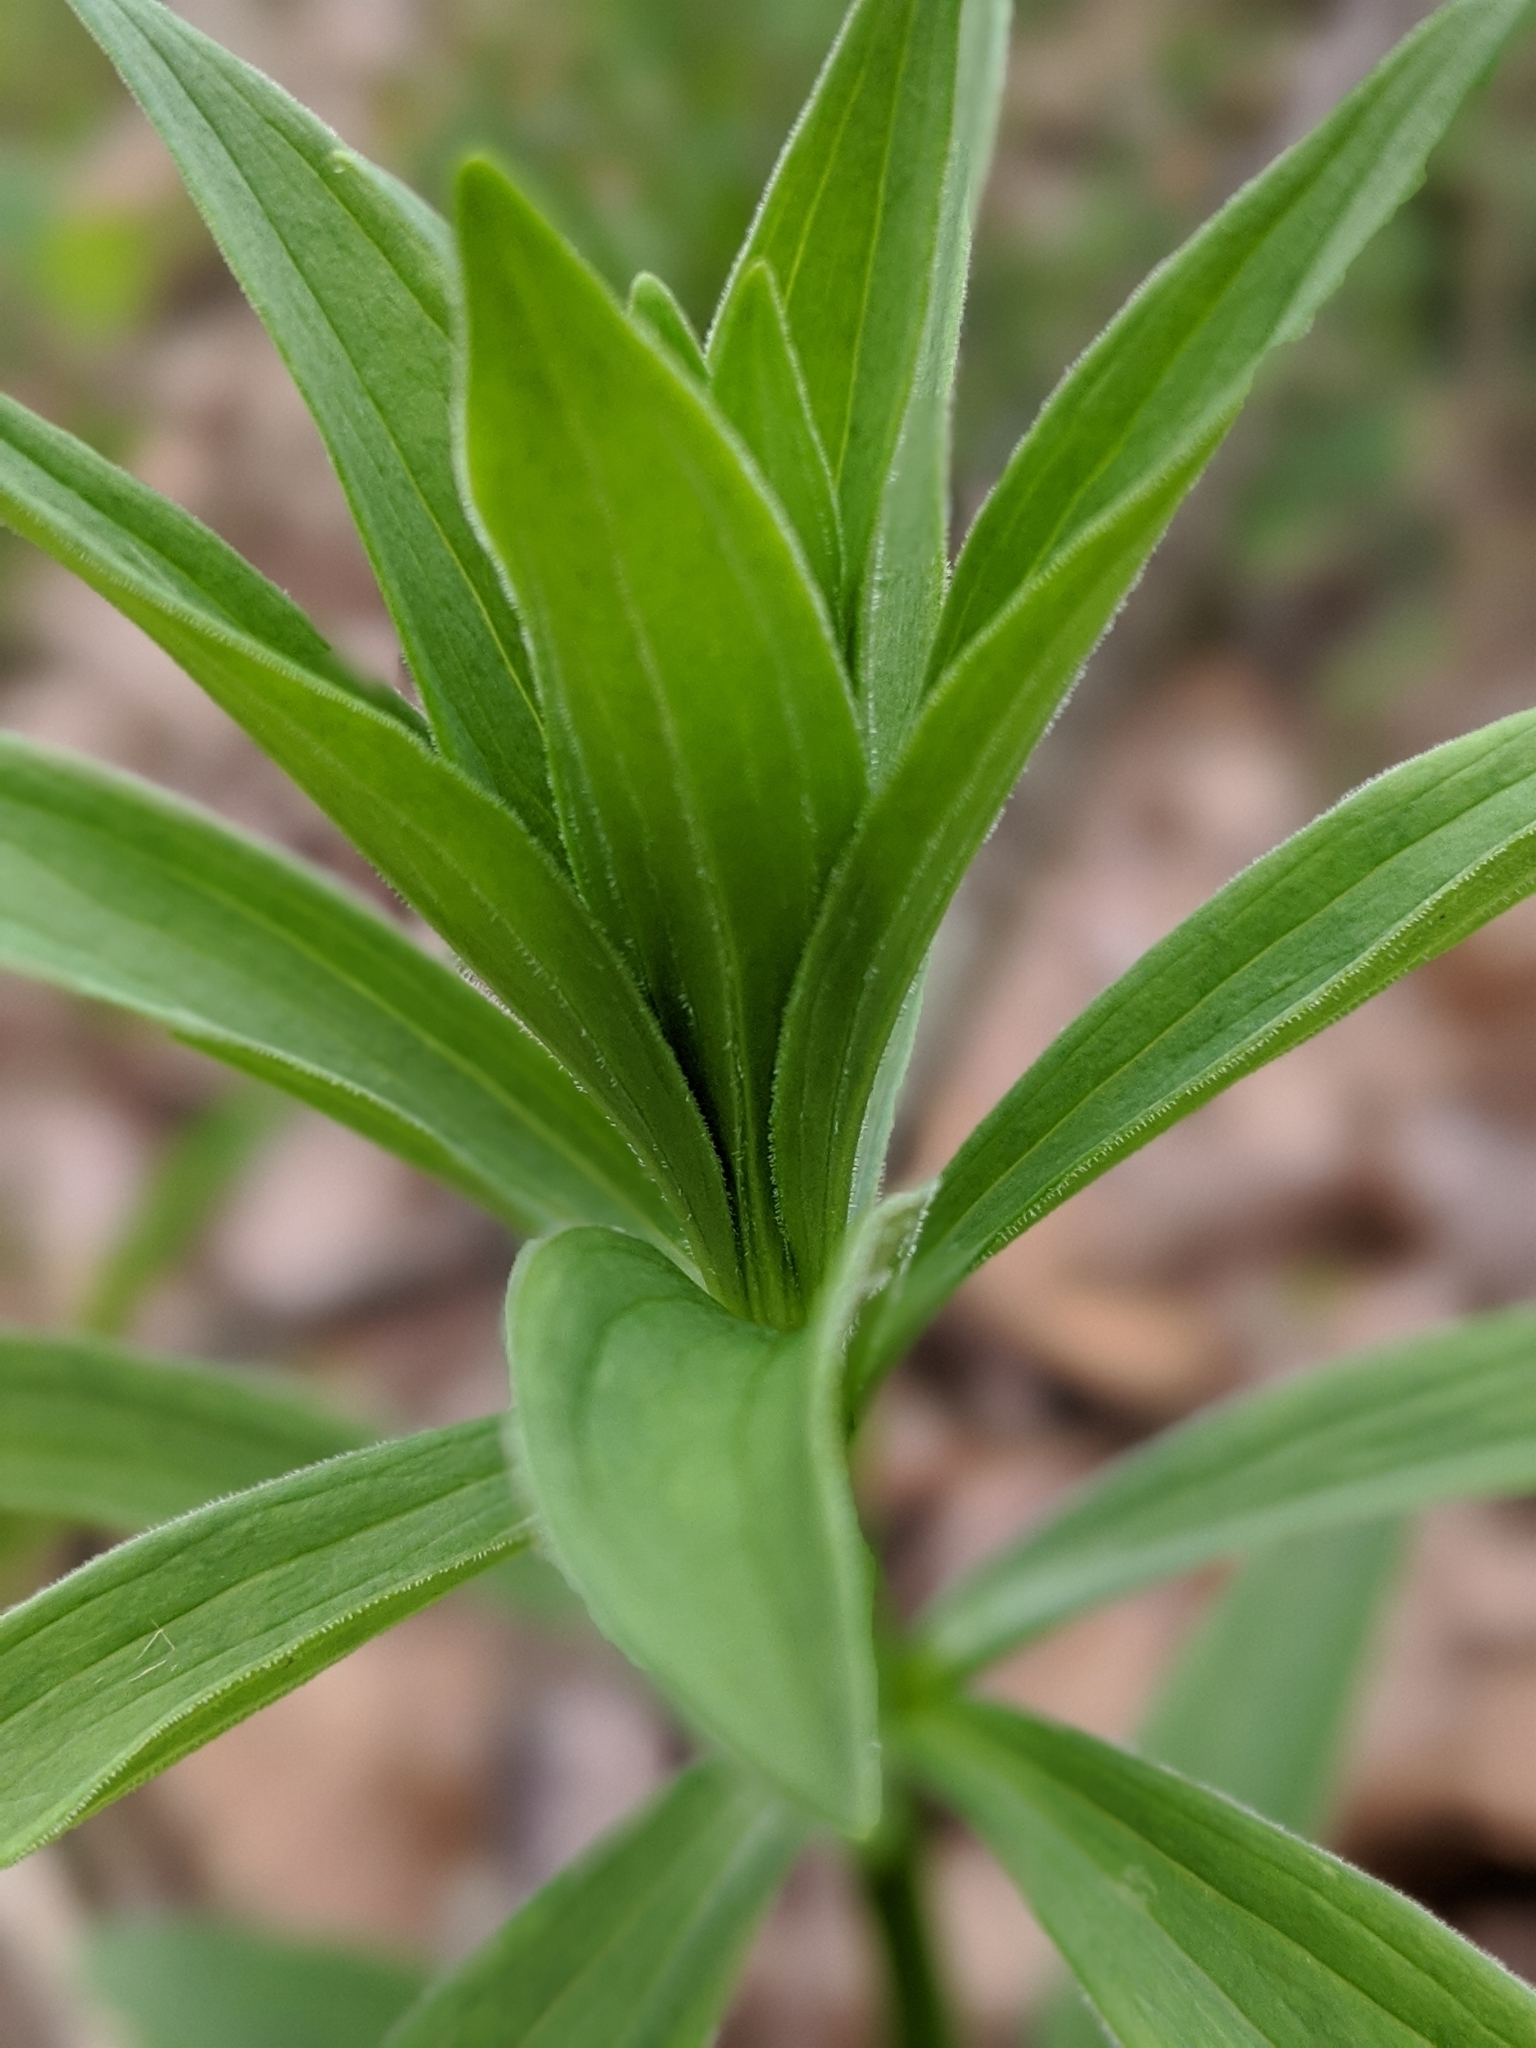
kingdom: Plantae
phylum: Tracheophyta
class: Liliopsida
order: Liliales
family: Liliaceae
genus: Lilium
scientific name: Lilium michiganense
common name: Michigan lily
